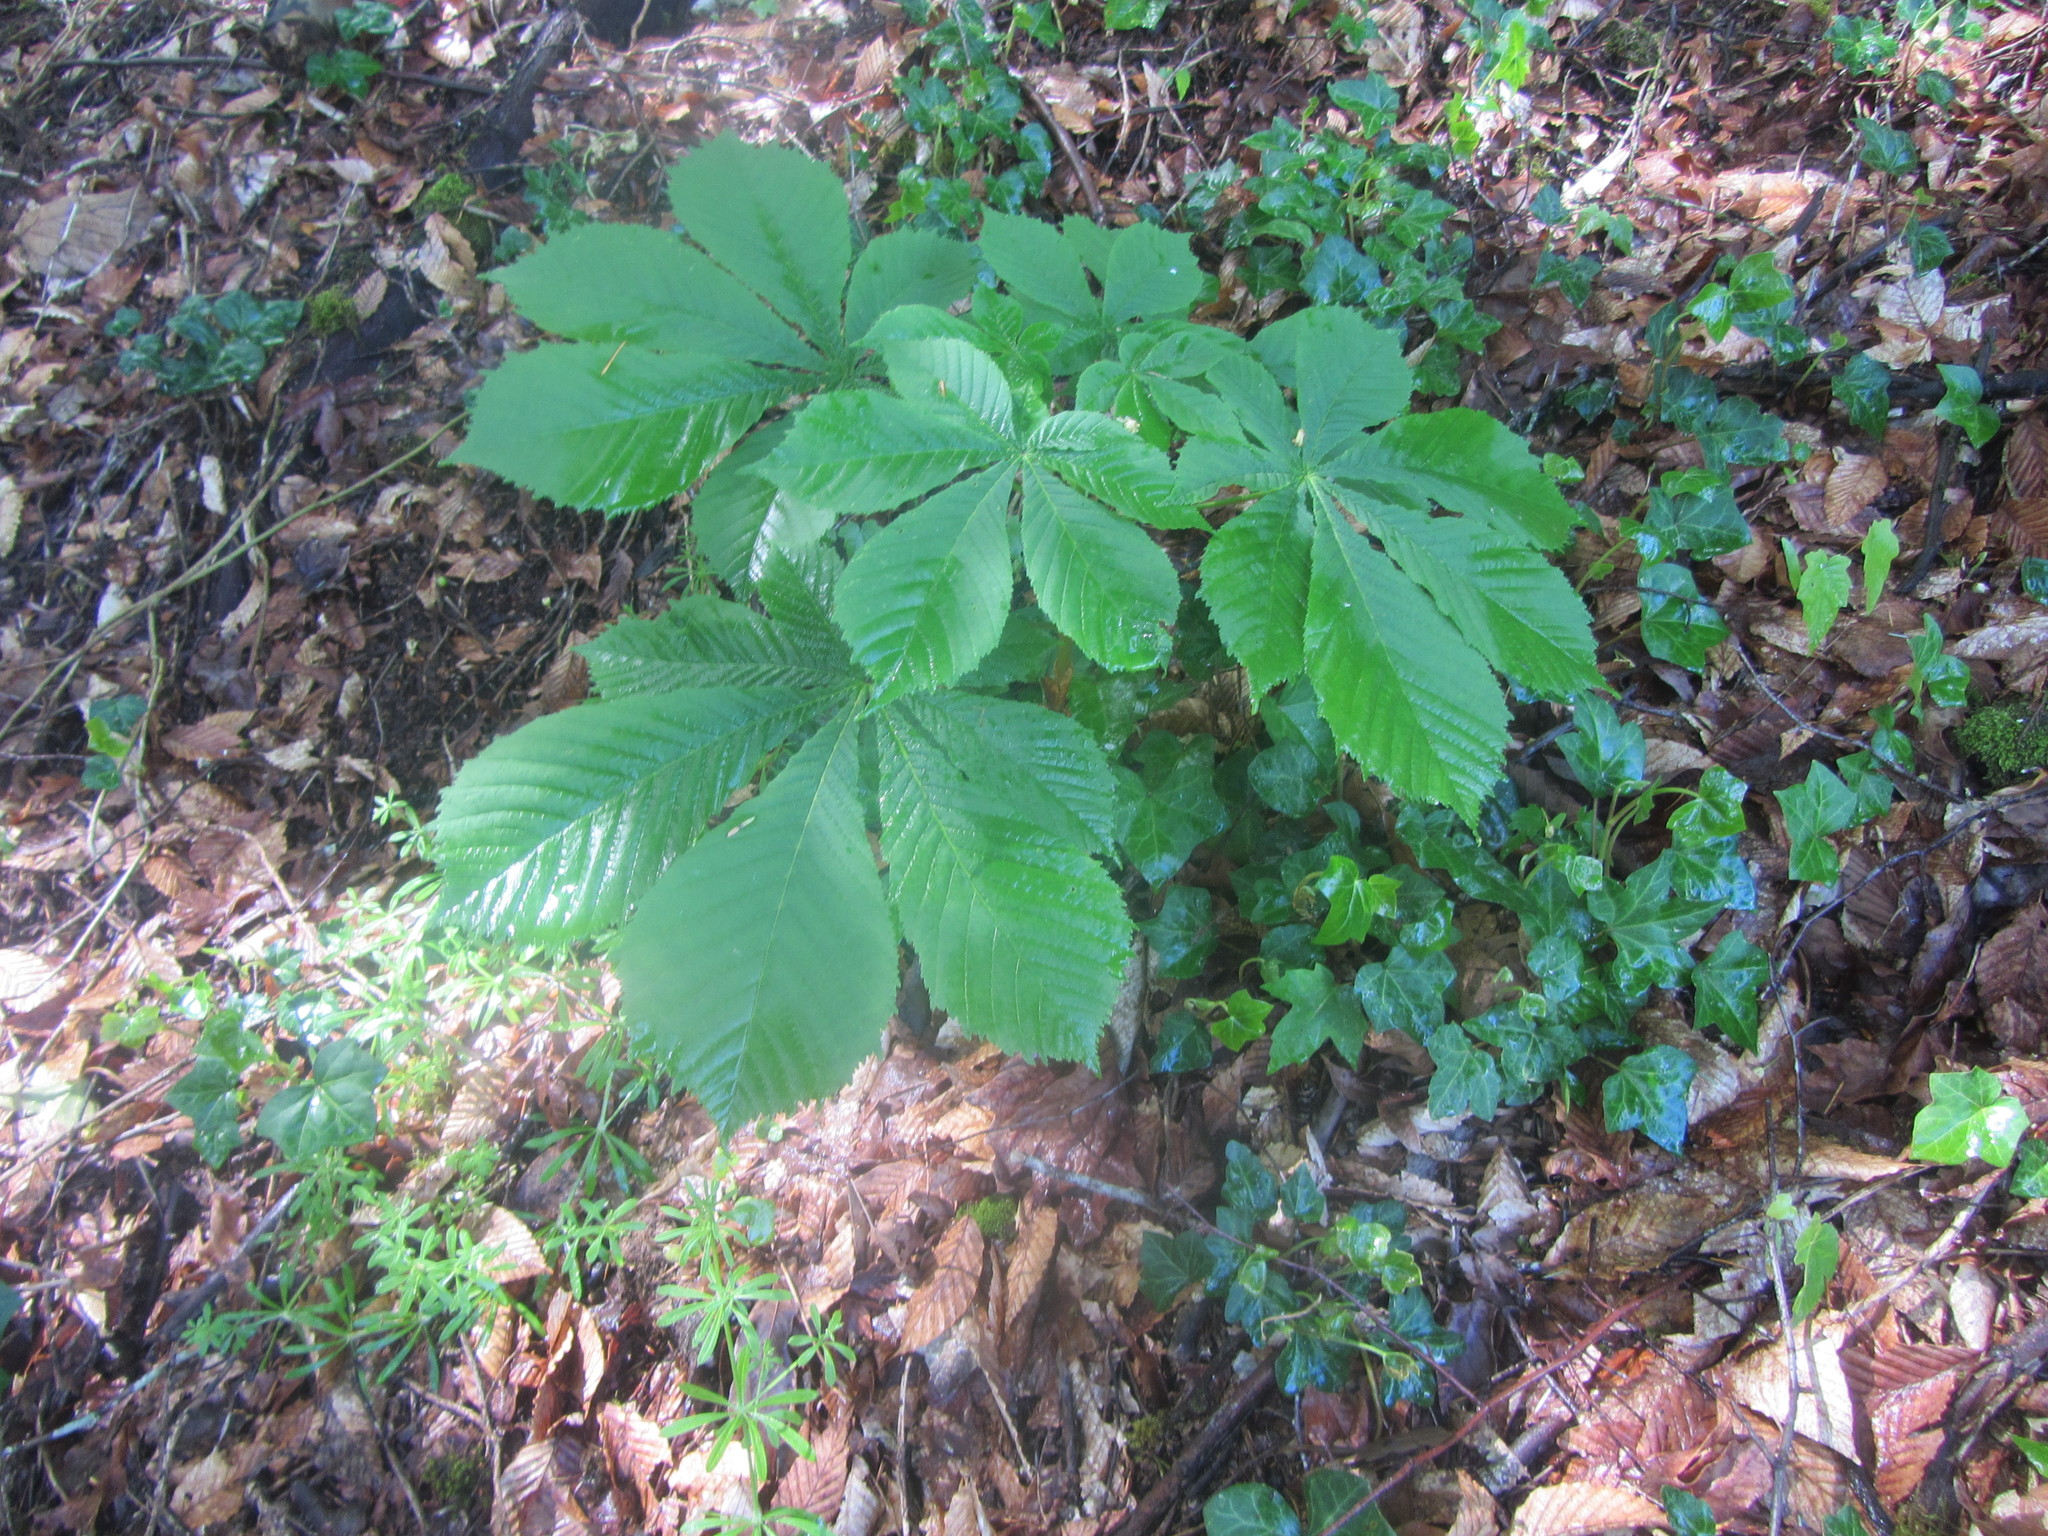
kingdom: Plantae
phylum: Tracheophyta
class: Magnoliopsida
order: Sapindales
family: Sapindaceae
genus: Aesculus
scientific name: Aesculus hippocastanum
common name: Horse-chestnut
